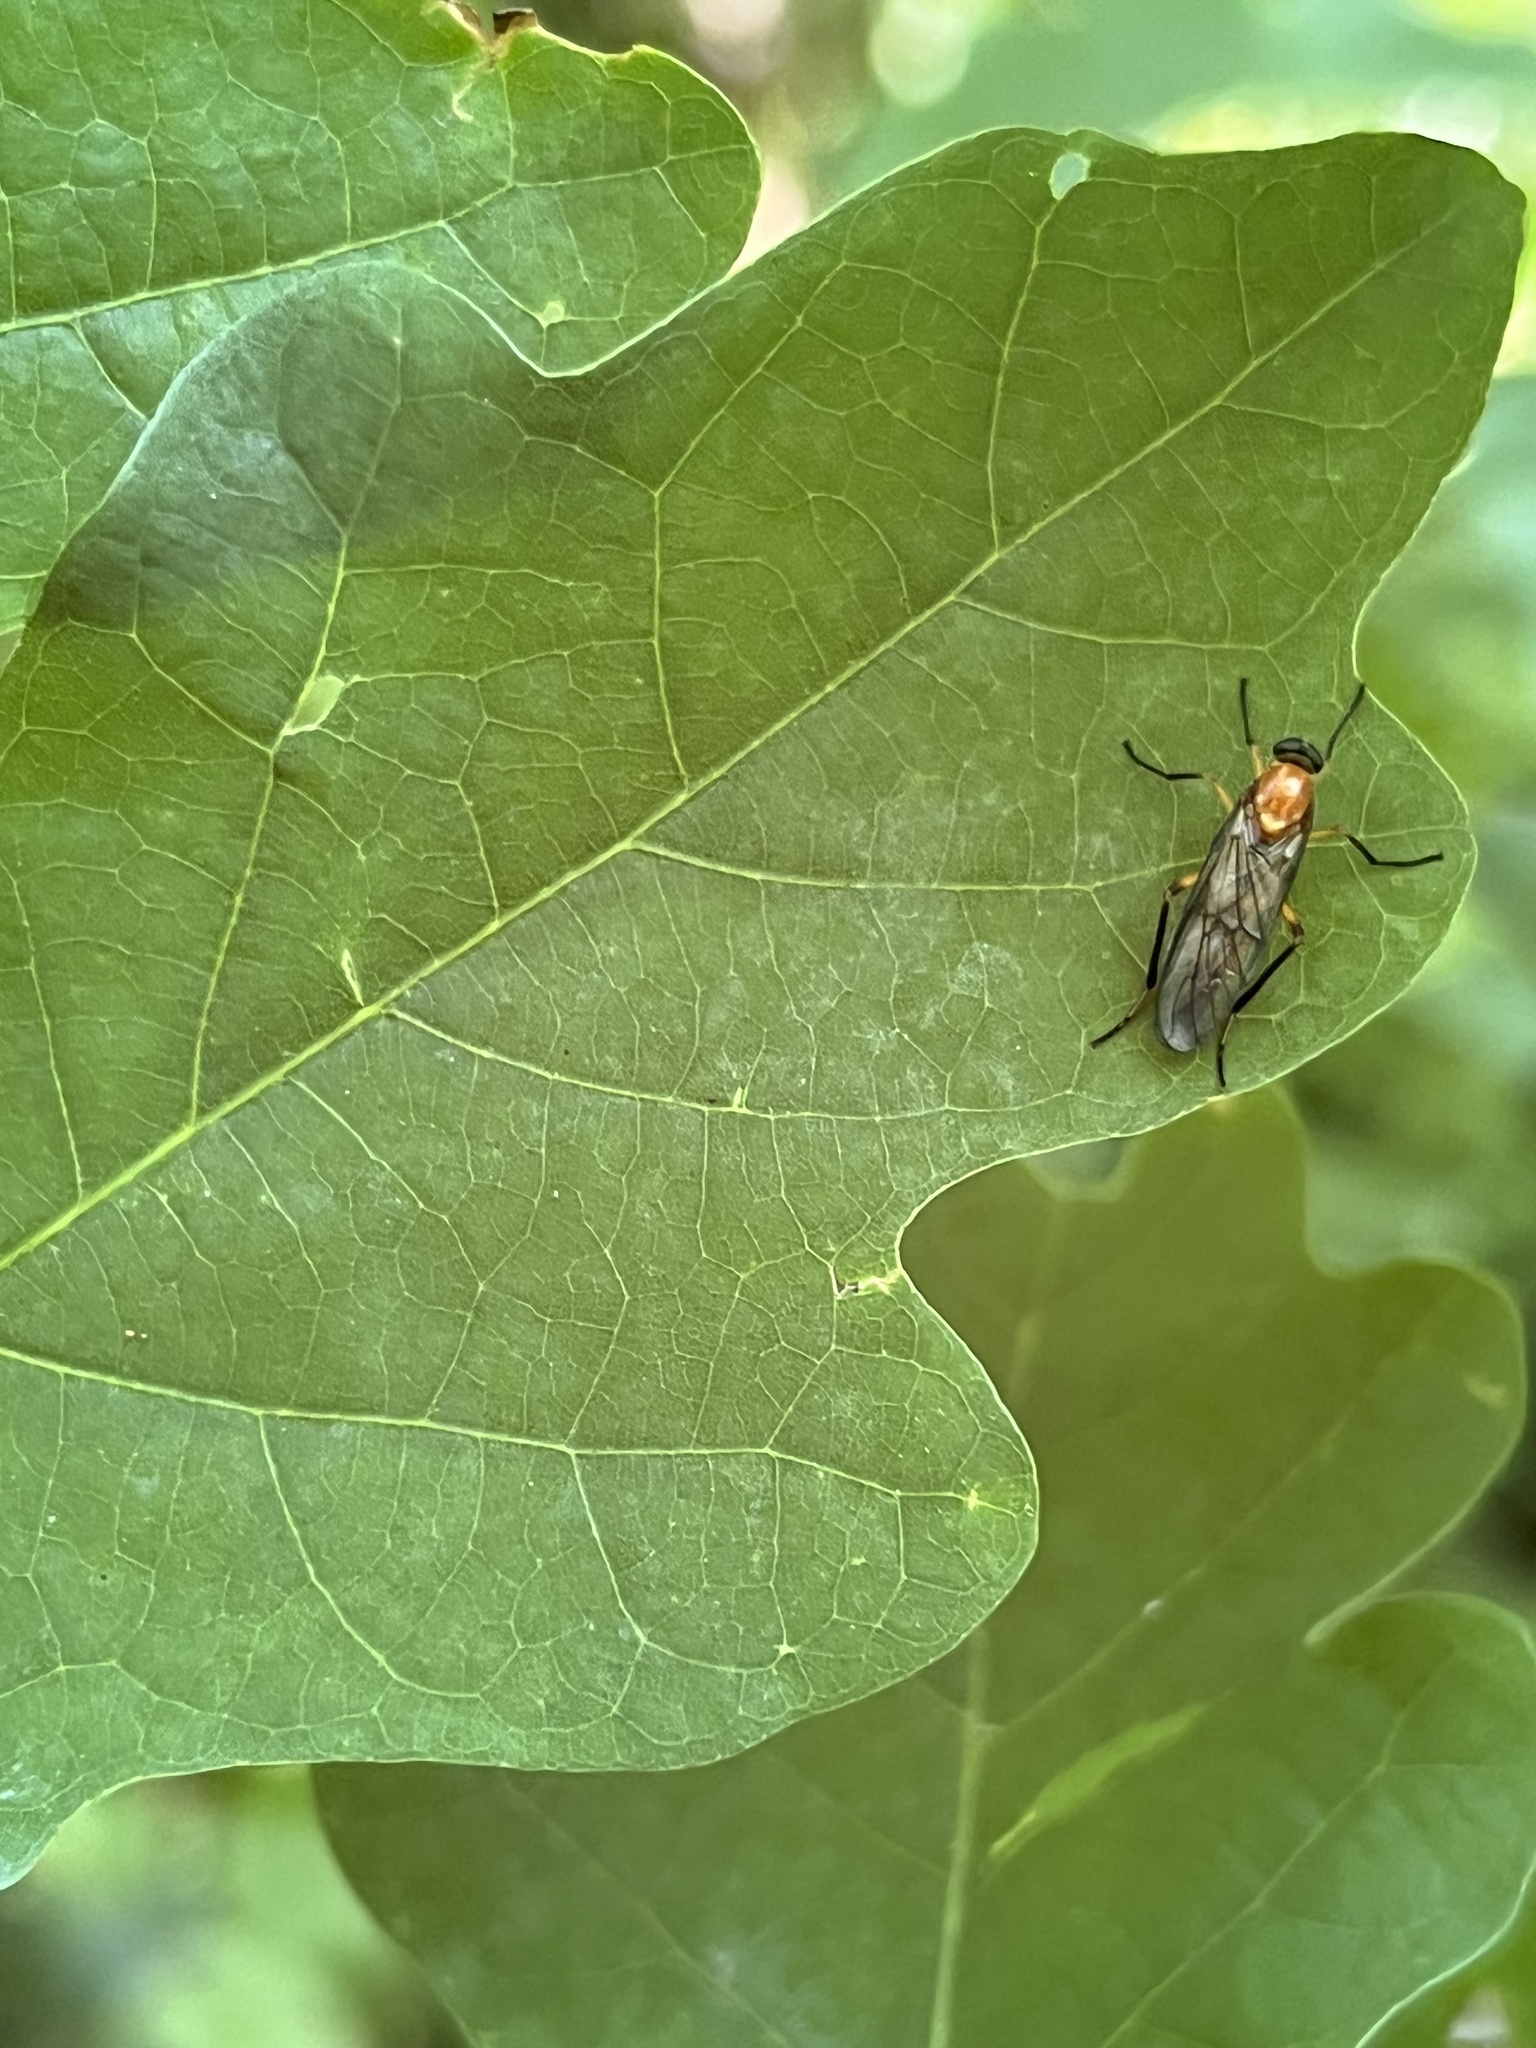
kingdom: Animalia
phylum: Arthropoda
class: Insecta
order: Diptera
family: Xylophagidae
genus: Dialysis
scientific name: Dialysis rufithorax
